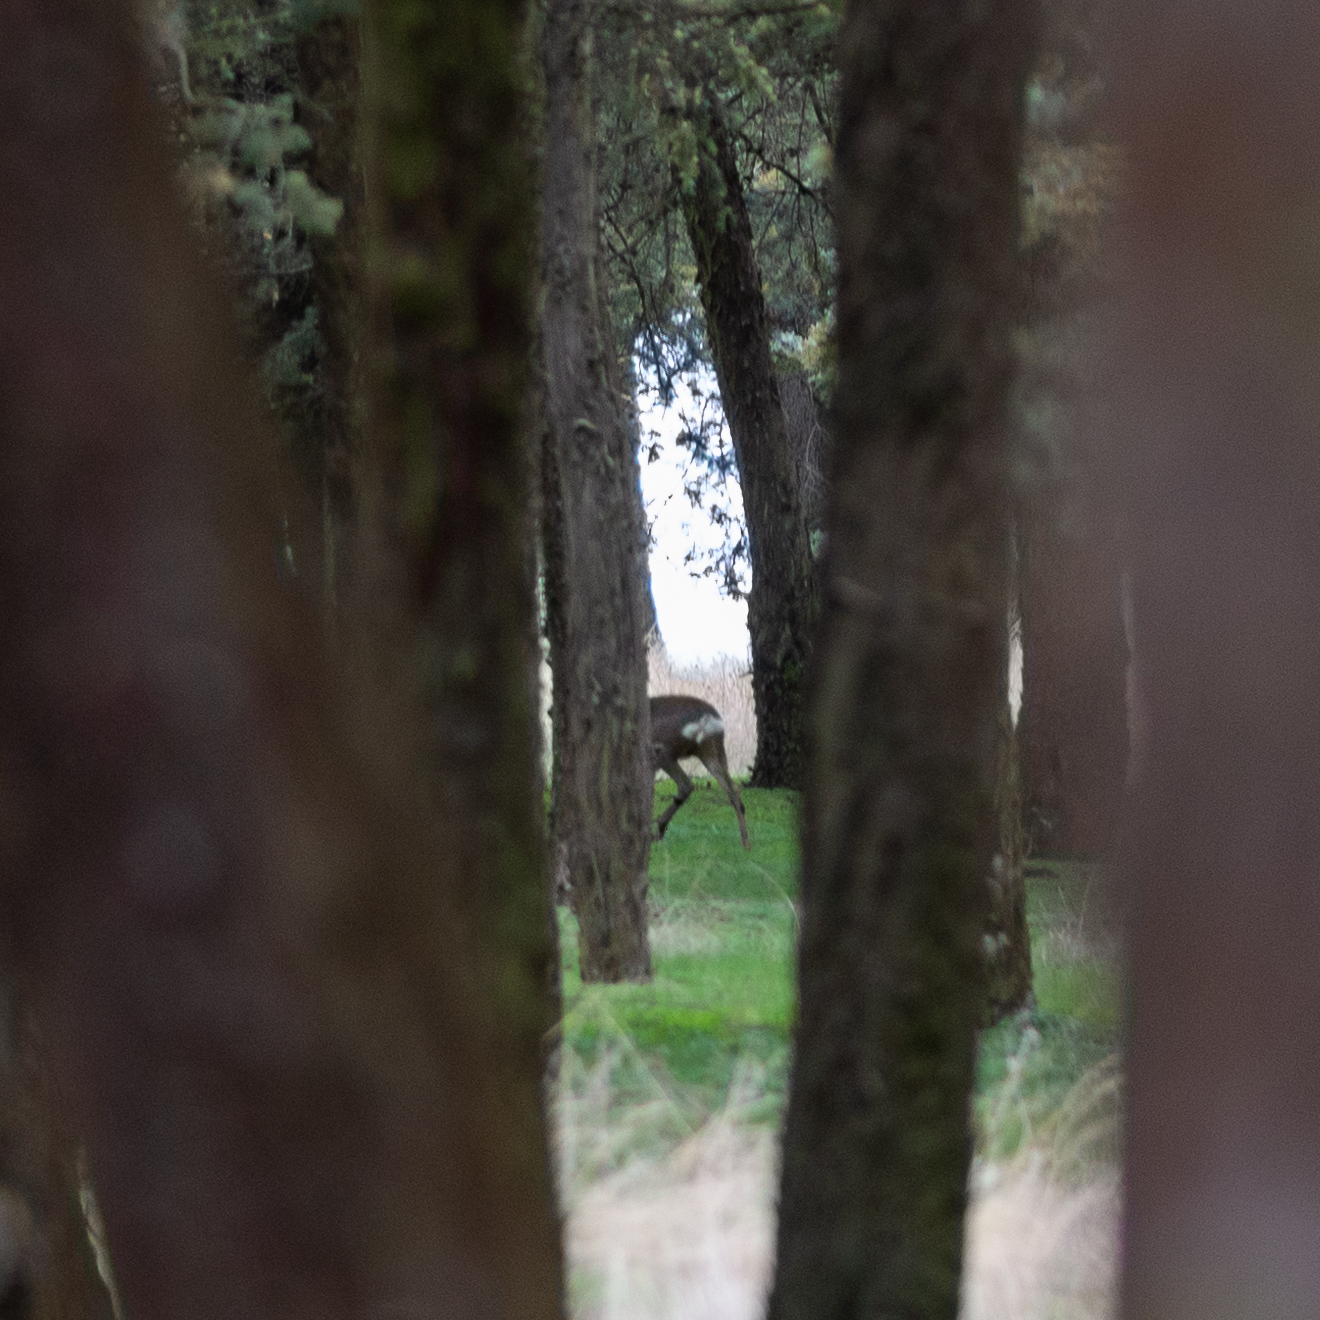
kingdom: Animalia
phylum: Chordata
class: Mammalia
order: Artiodactyla
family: Cervidae
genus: Capreolus
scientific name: Capreolus capreolus
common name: Western roe deer
